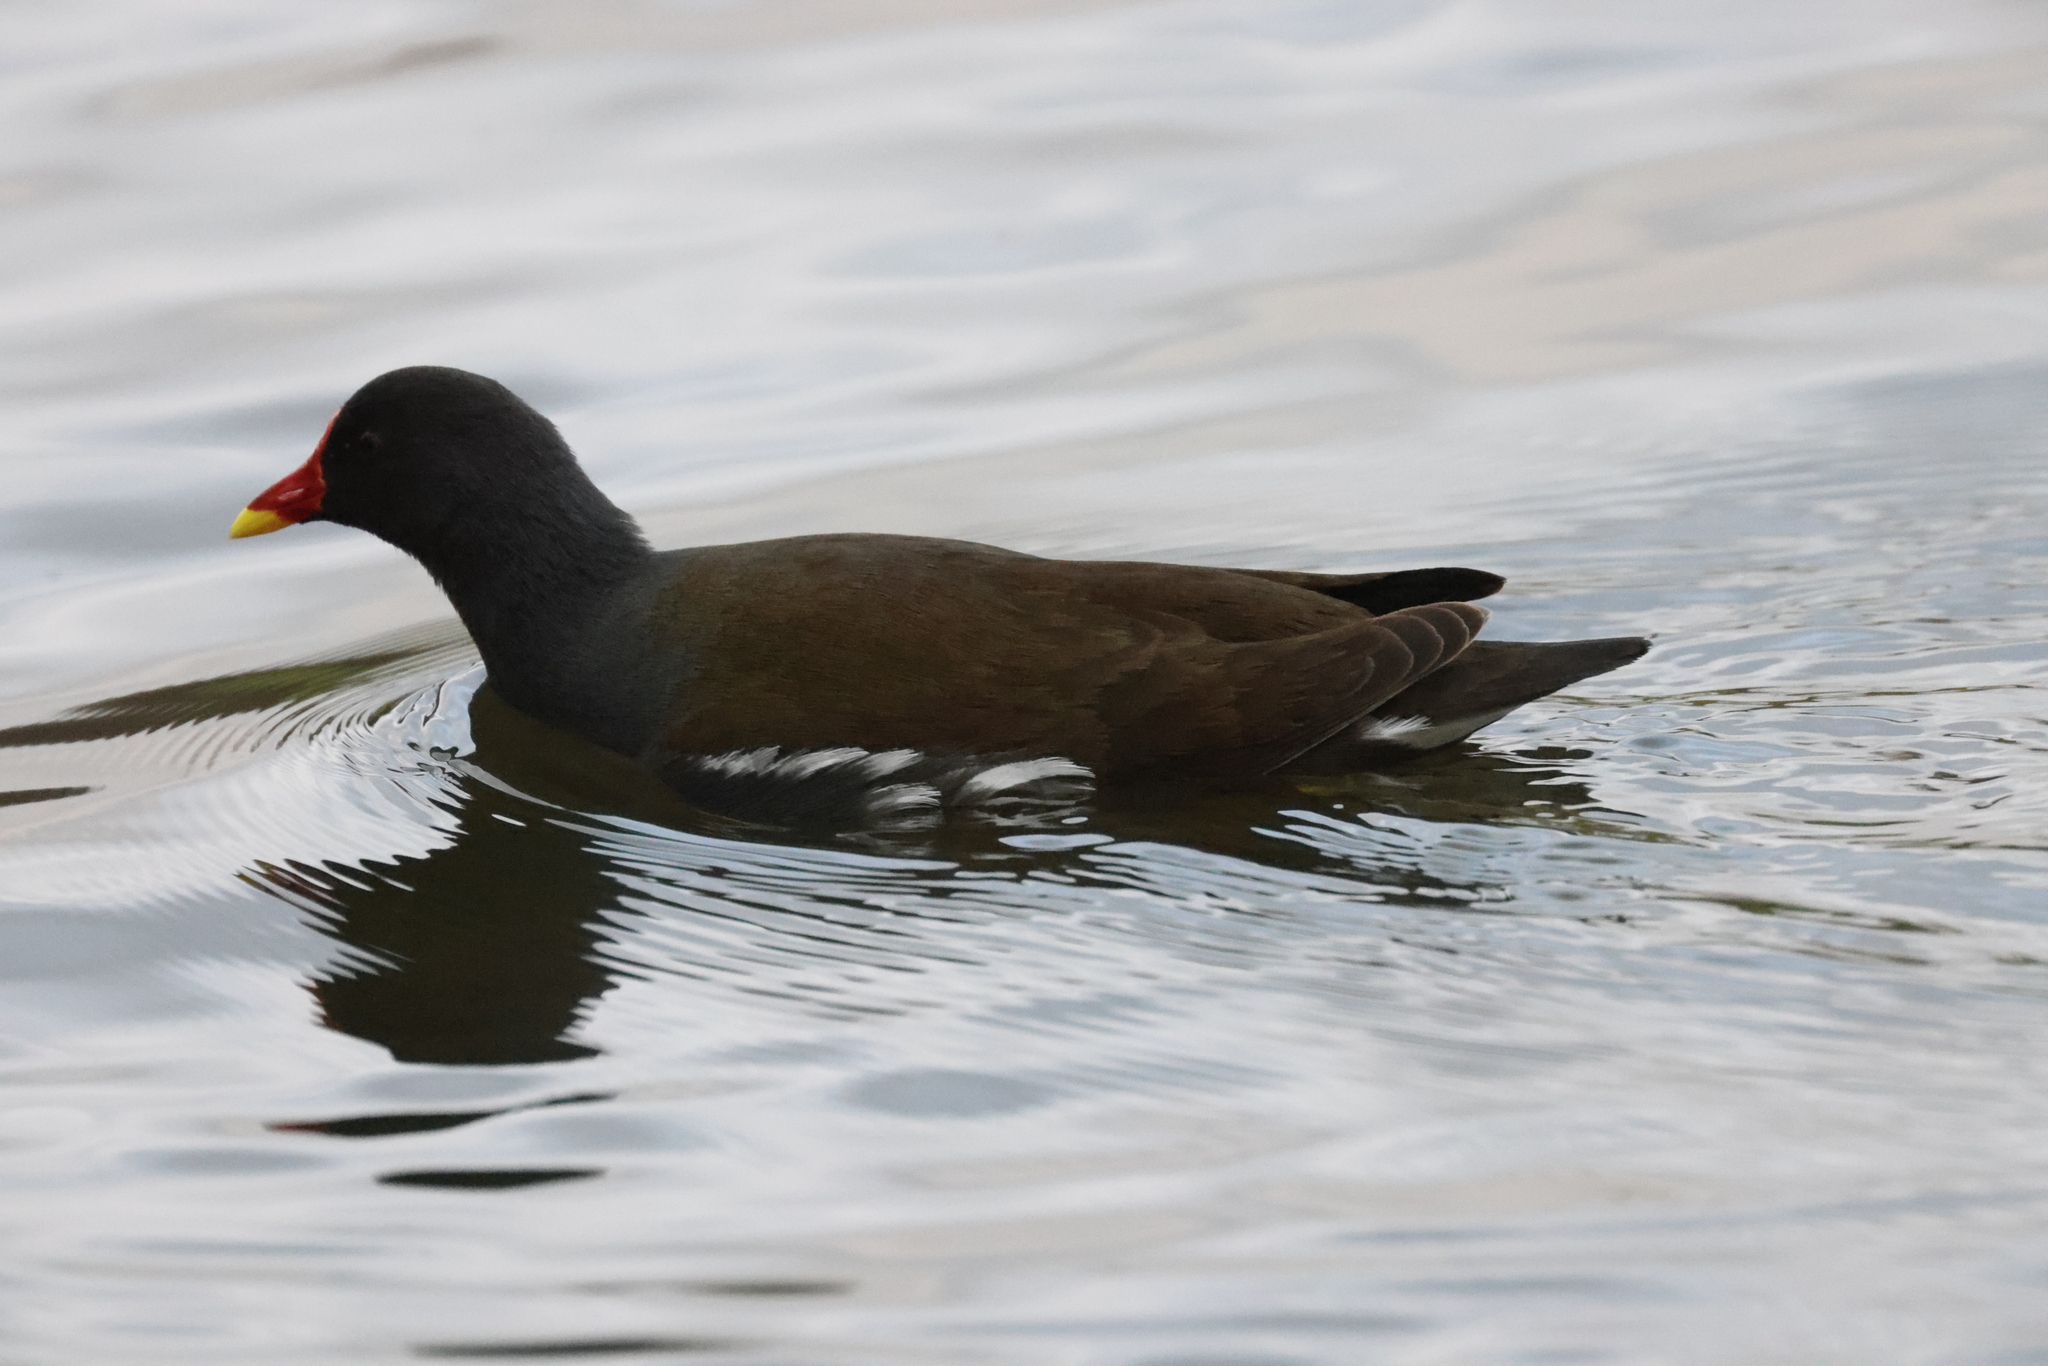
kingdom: Animalia
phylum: Chordata
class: Aves
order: Gruiformes
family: Rallidae
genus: Gallinula
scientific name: Gallinula chloropus
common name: Common moorhen
